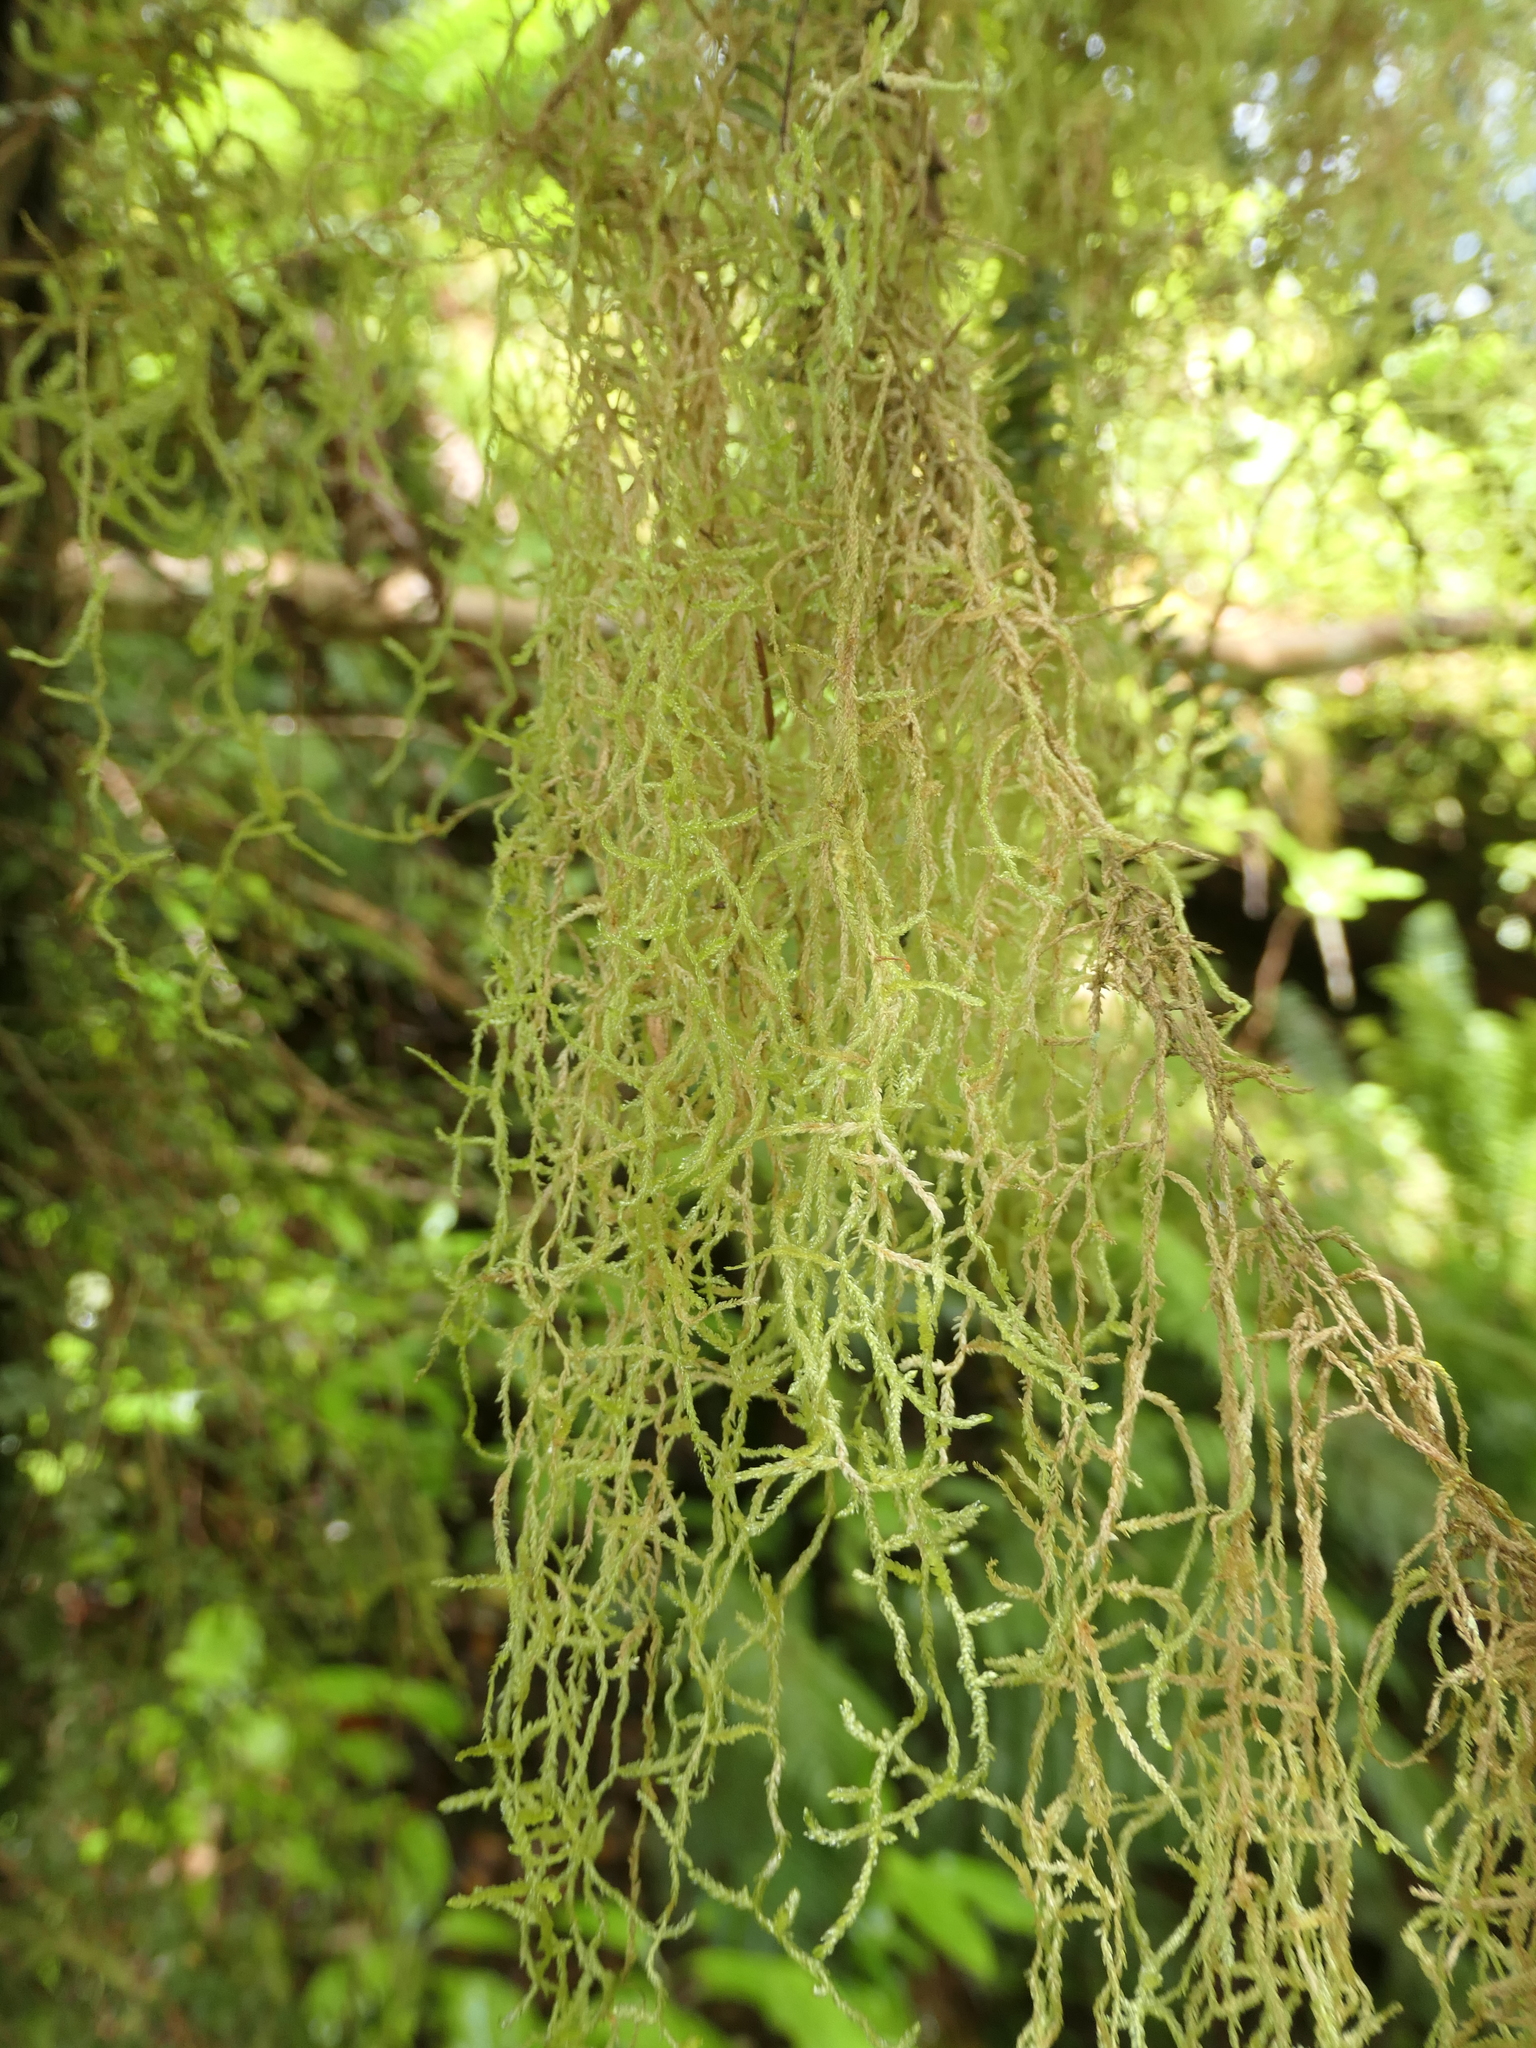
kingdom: Plantae
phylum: Bryophyta
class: Bryopsida
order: Hypnales
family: Lembophyllaceae
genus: Weymouthia
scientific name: Weymouthia mollis
